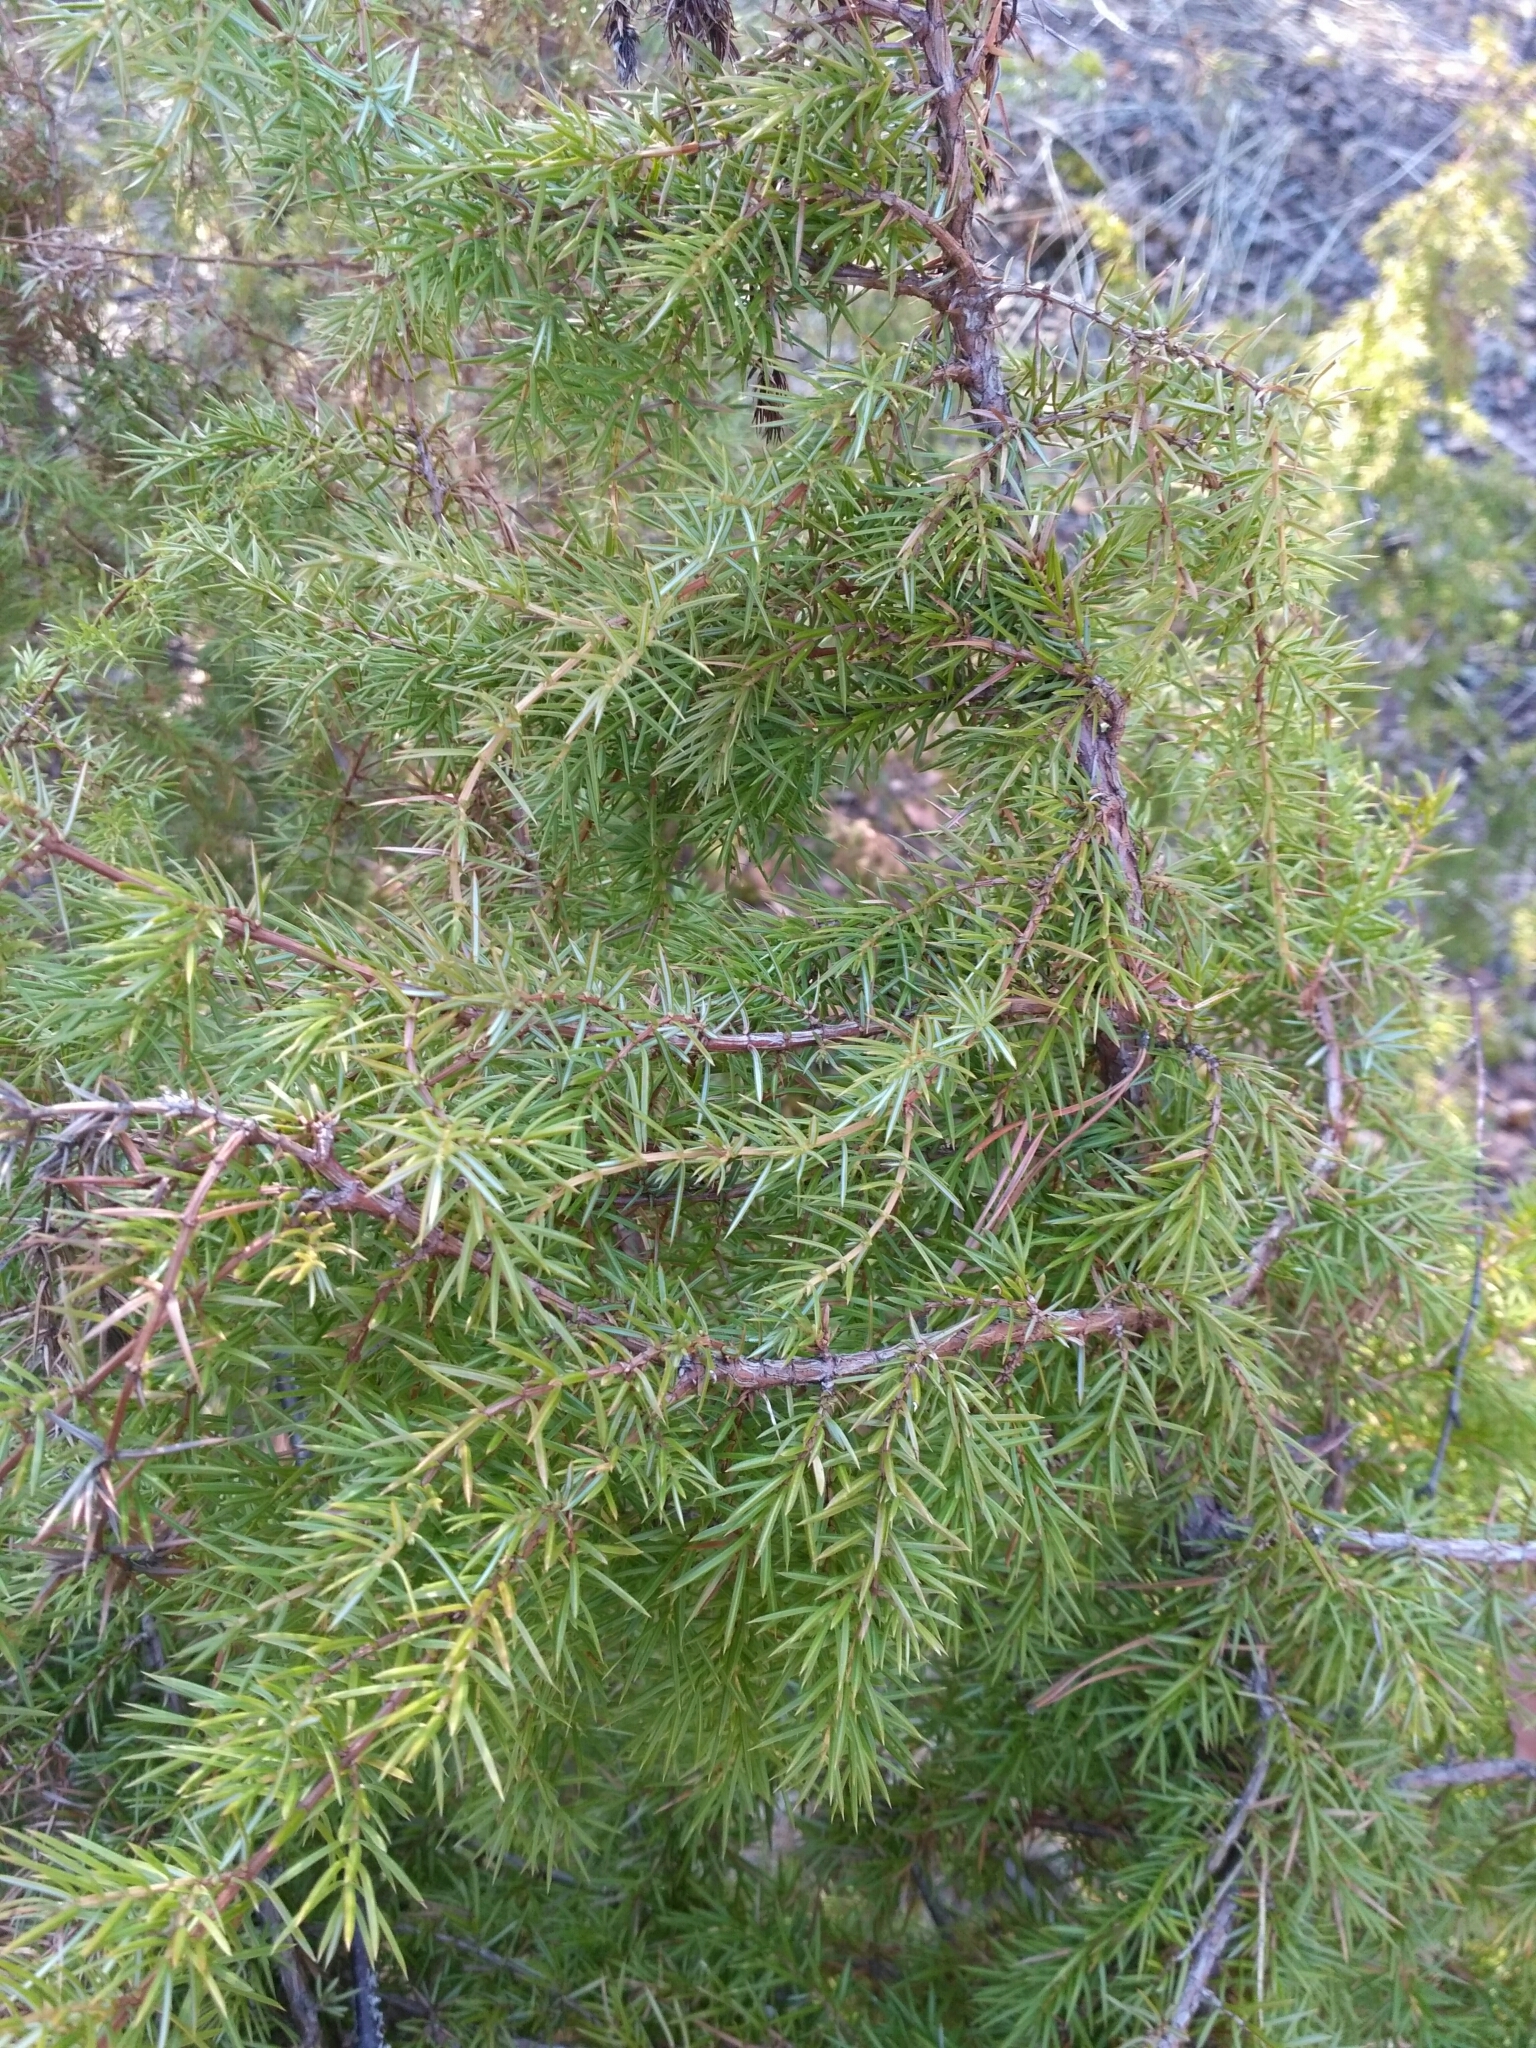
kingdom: Plantae
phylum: Tracheophyta
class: Pinopsida
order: Pinales
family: Cupressaceae
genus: Juniperus
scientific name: Juniperus communis
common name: Common juniper
